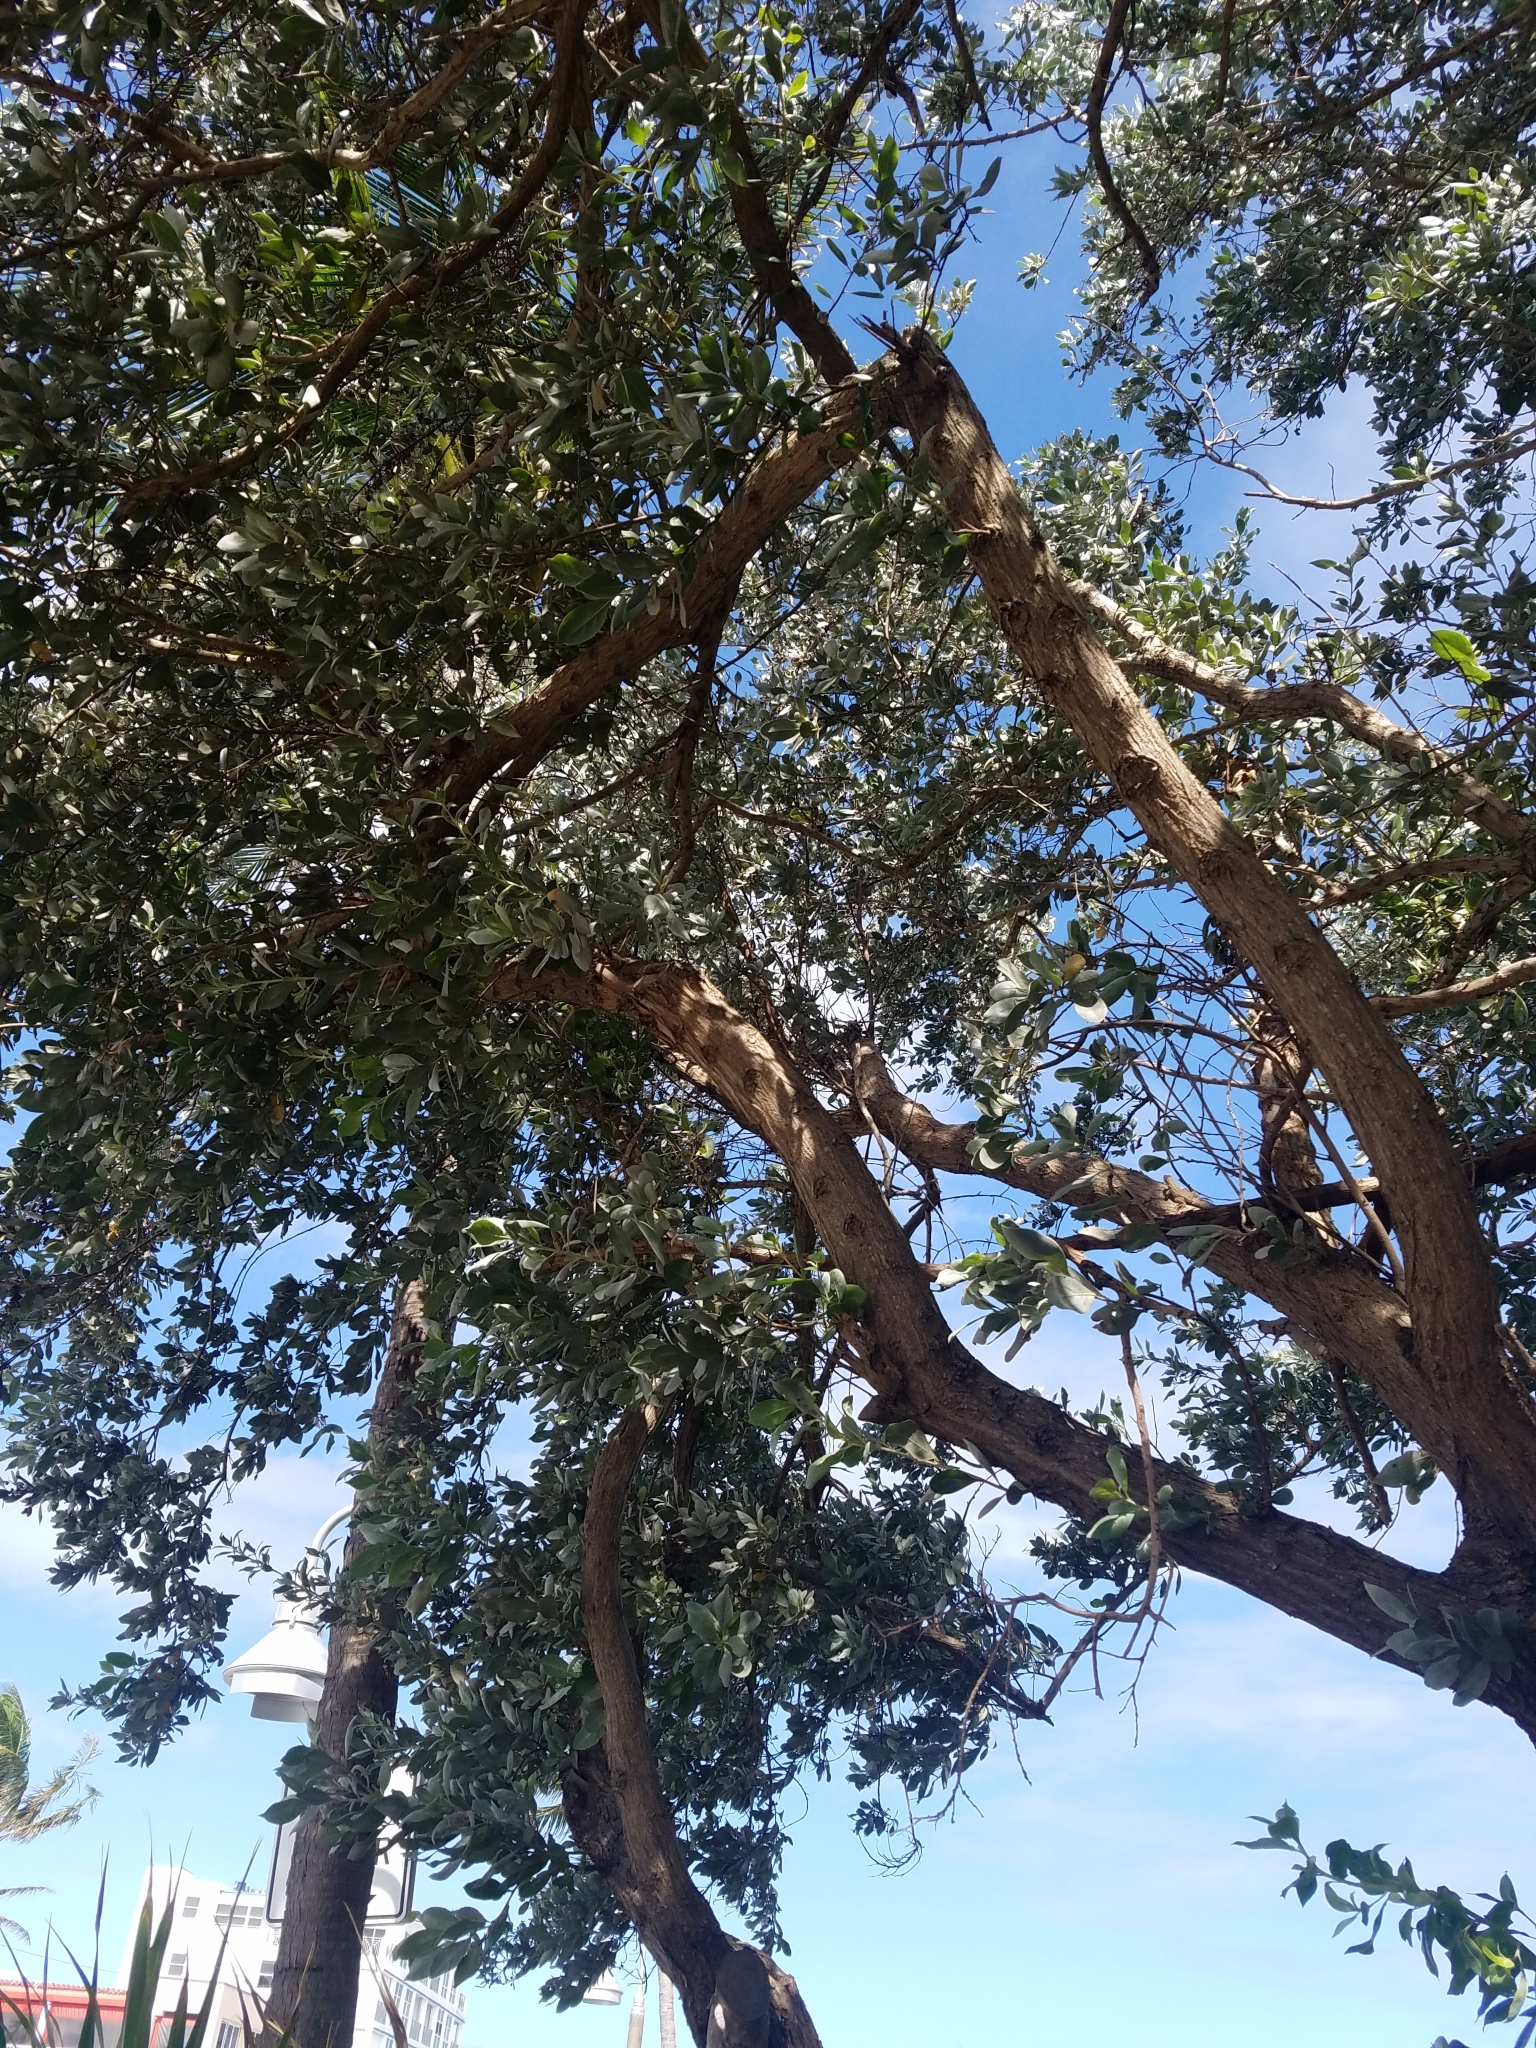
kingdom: Plantae
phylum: Tracheophyta
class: Magnoliopsida
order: Myrtales
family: Combretaceae
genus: Conocarpus
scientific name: Conocarpus erectus
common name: Button mangrove
